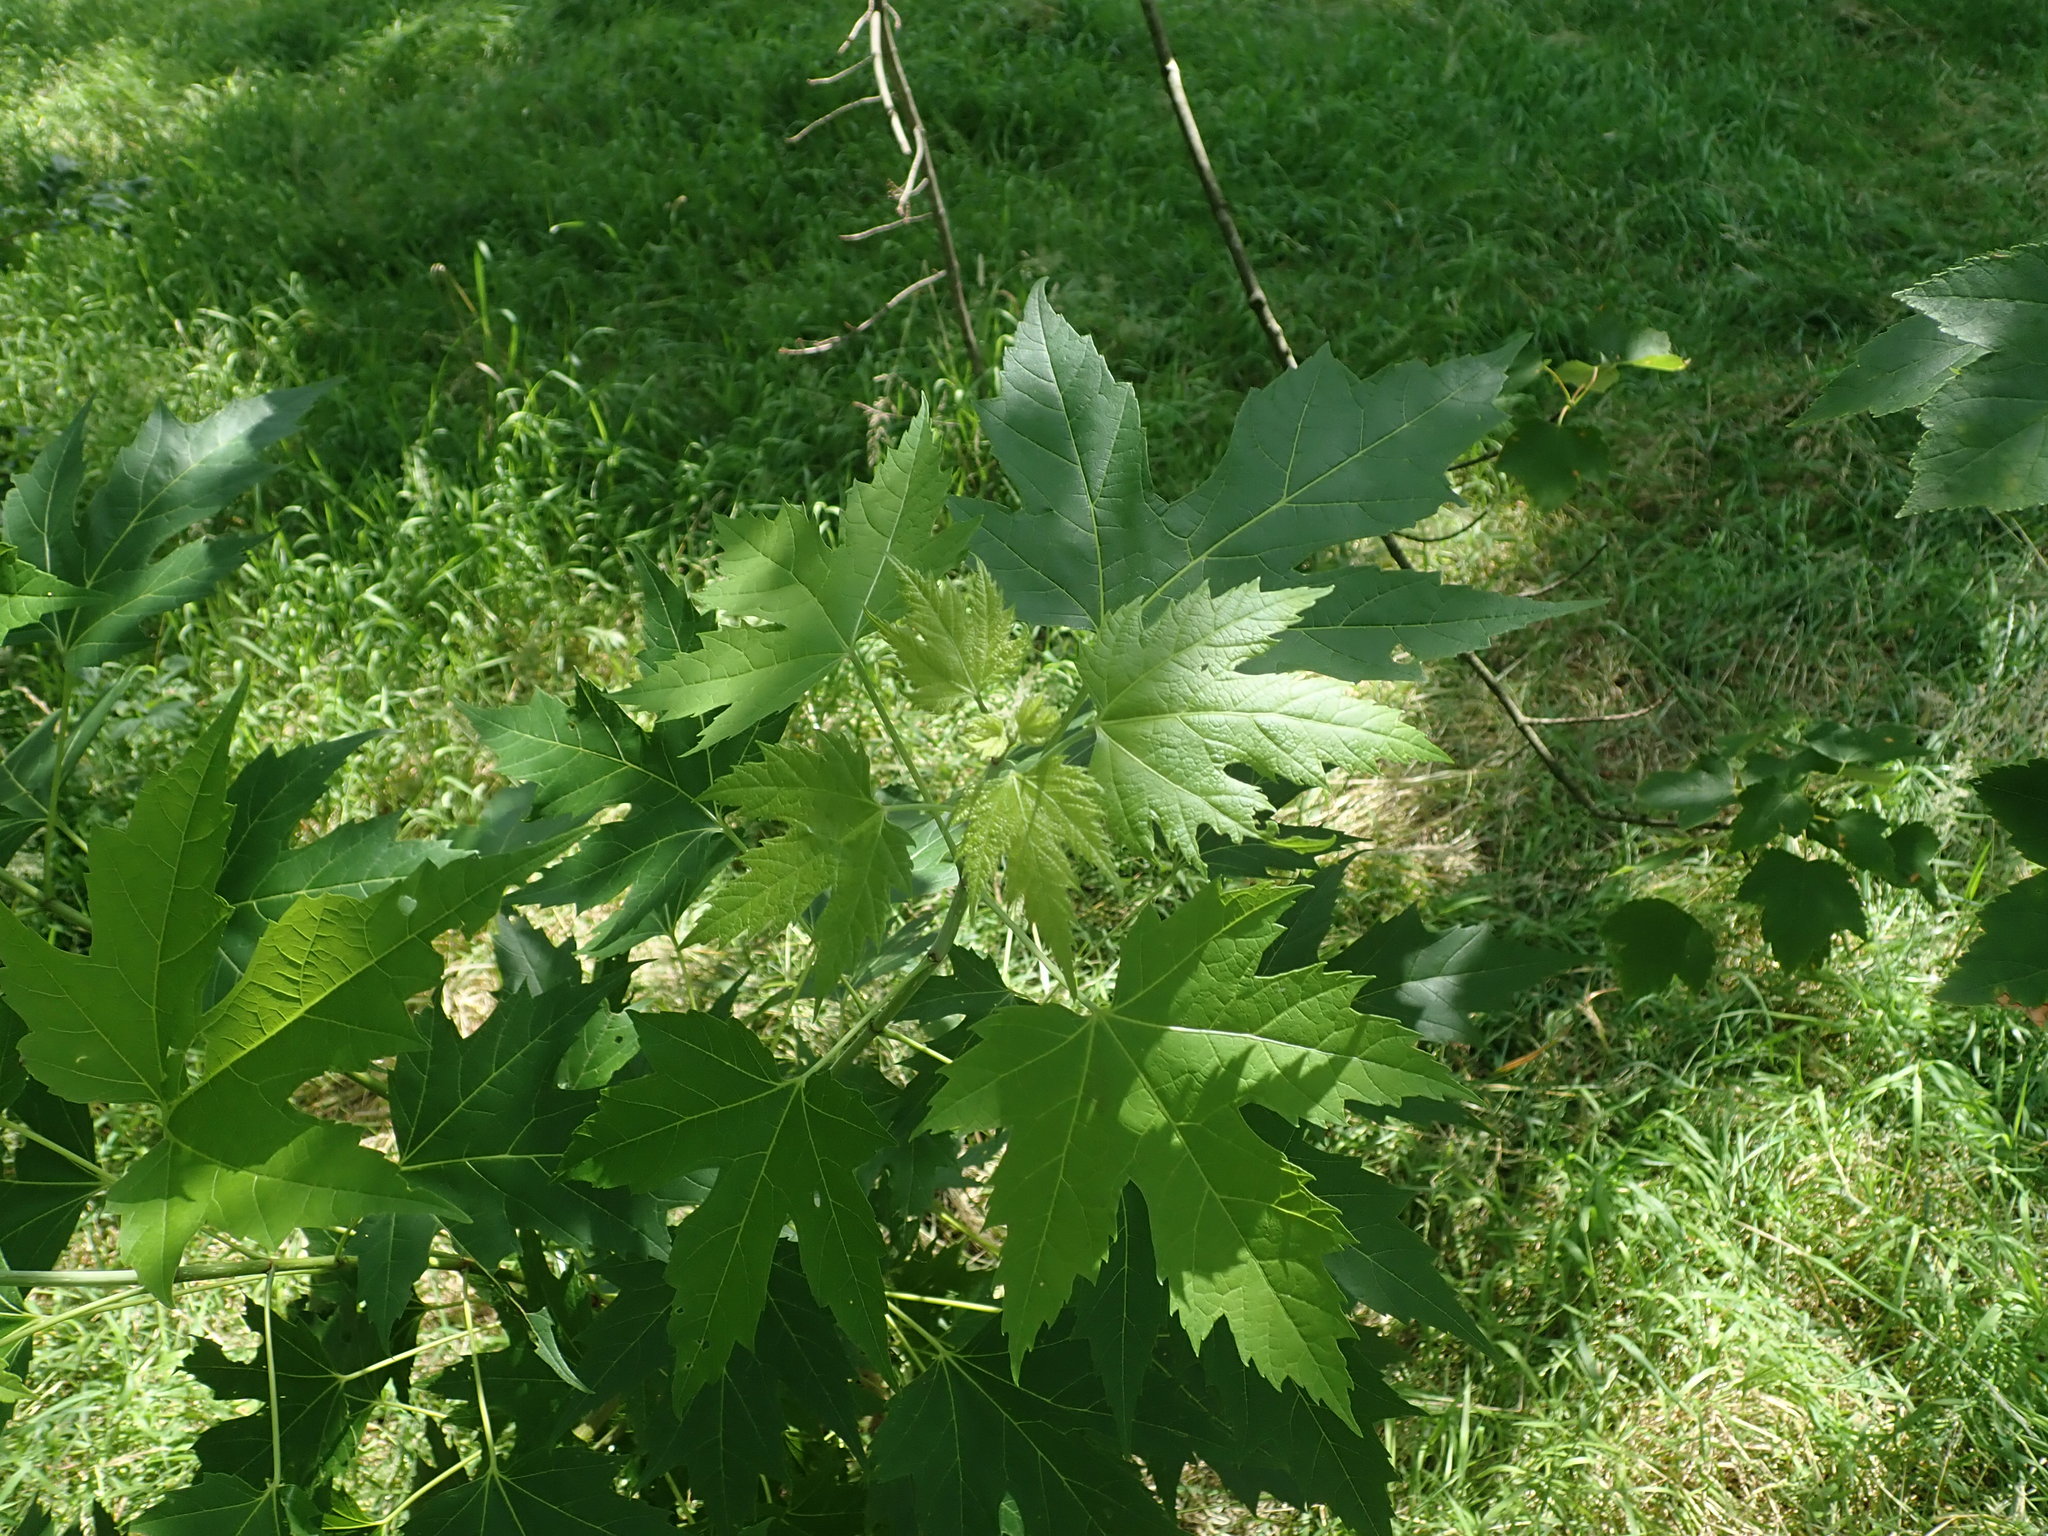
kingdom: Plantae
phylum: Tracheophyta
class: Magnoliopsida
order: Sapindales
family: Sapindaceae
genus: Acer
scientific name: Acer saccharinum
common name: Silver maple
